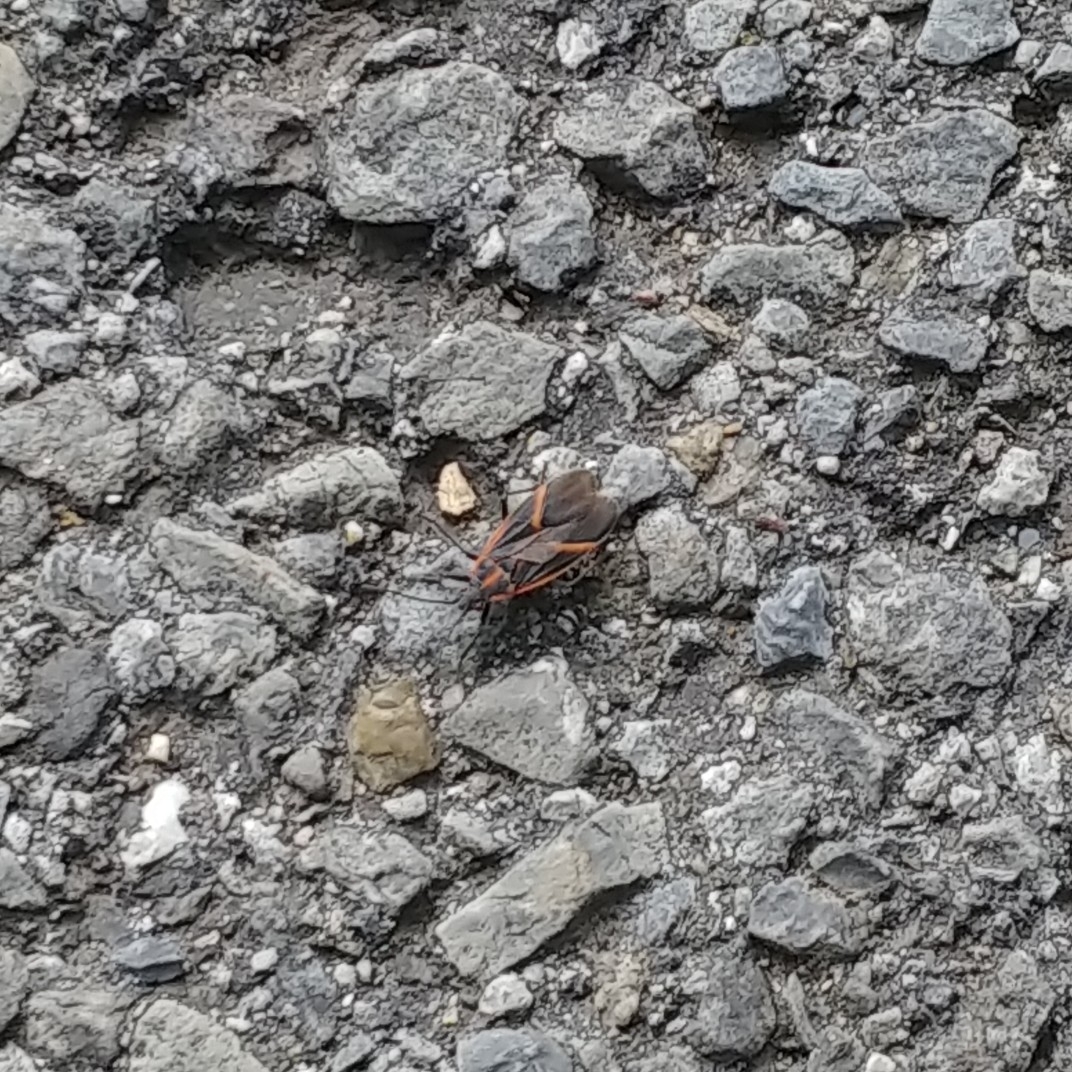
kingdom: Animalia
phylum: Arthropoda
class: Insecta
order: Hemiptera
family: Rhopalidae
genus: Boisea
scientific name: Boisea trivittata
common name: Boxelder bug
